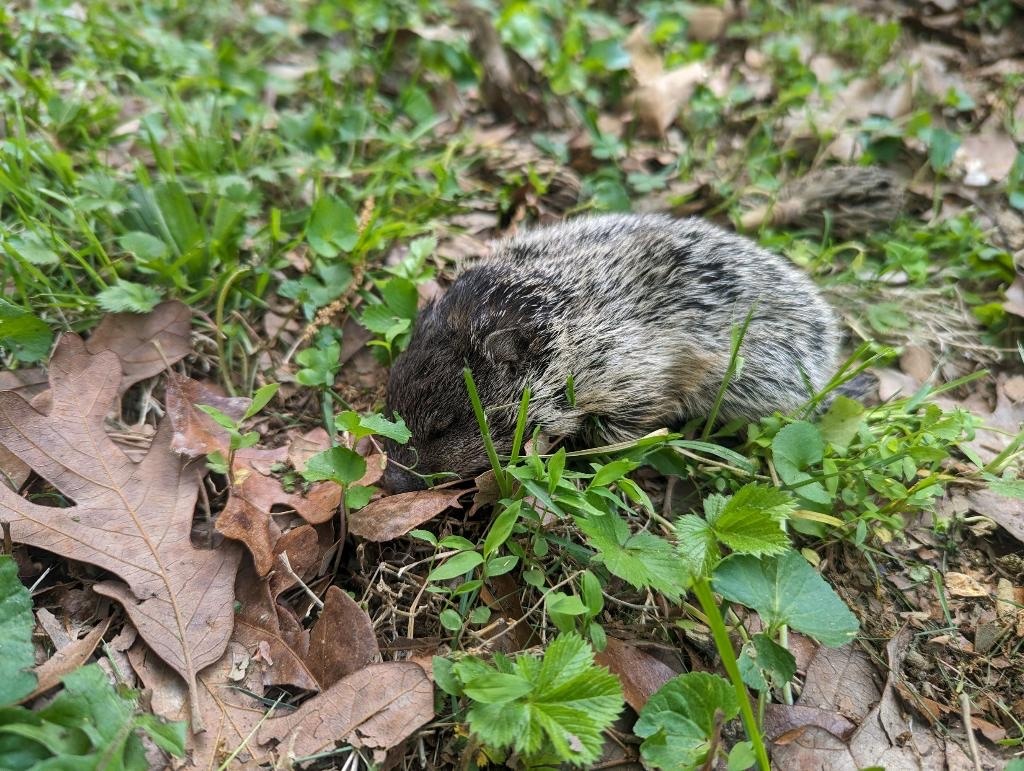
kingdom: Animalia
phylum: Chordata
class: Mammalia
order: Rodentia
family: Sciuridae
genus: Marmota
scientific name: Marmota monax
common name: Groundhog
